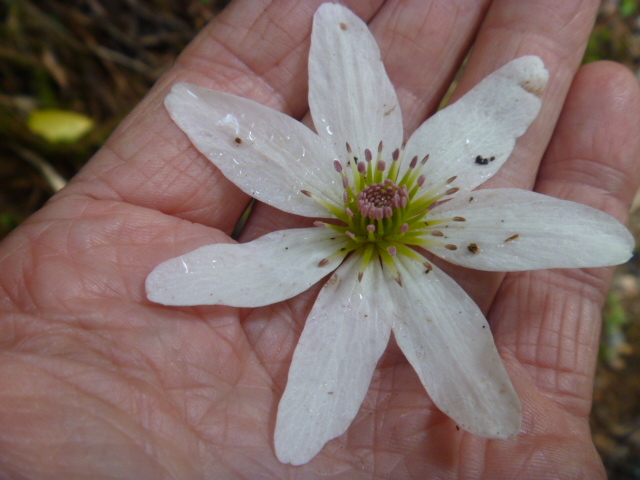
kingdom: Plantae
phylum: Tracheophyta
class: Magnoliopsida
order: Ranunculales
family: Ranunculaceae
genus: Clematis
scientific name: Clematis paniculata
